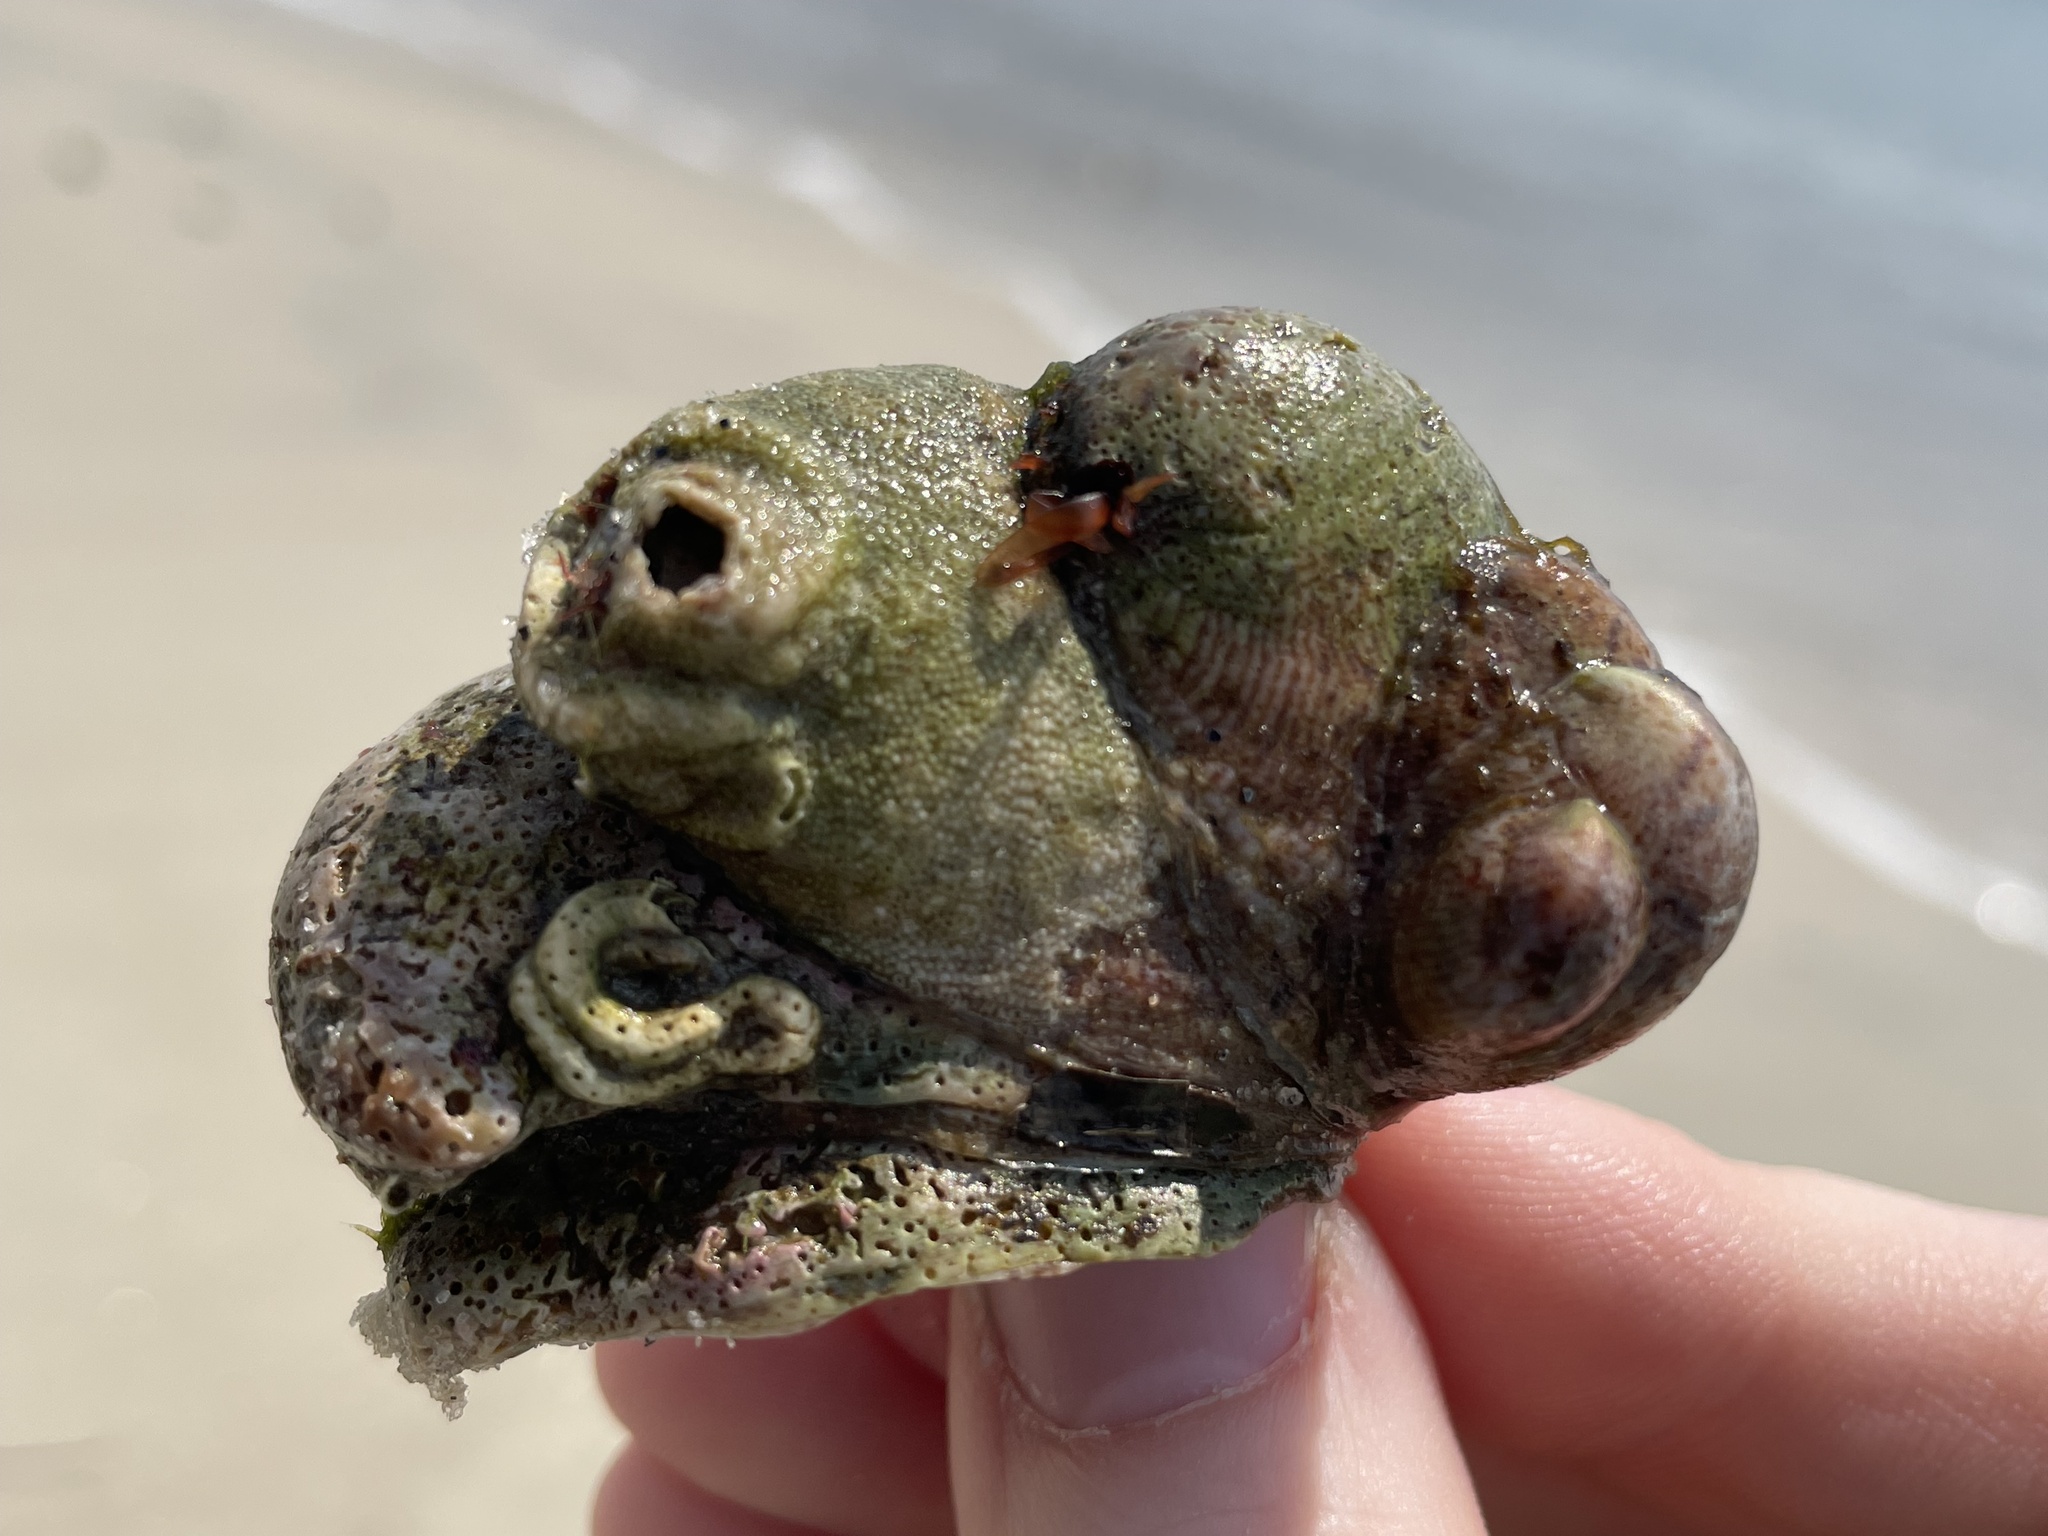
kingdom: Animalia
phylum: Mollusca
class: Gastropoda
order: Littorinimorpha
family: Calyptraeidae
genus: Crepidula
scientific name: Crepidula fornicata
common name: Slipper limpet
